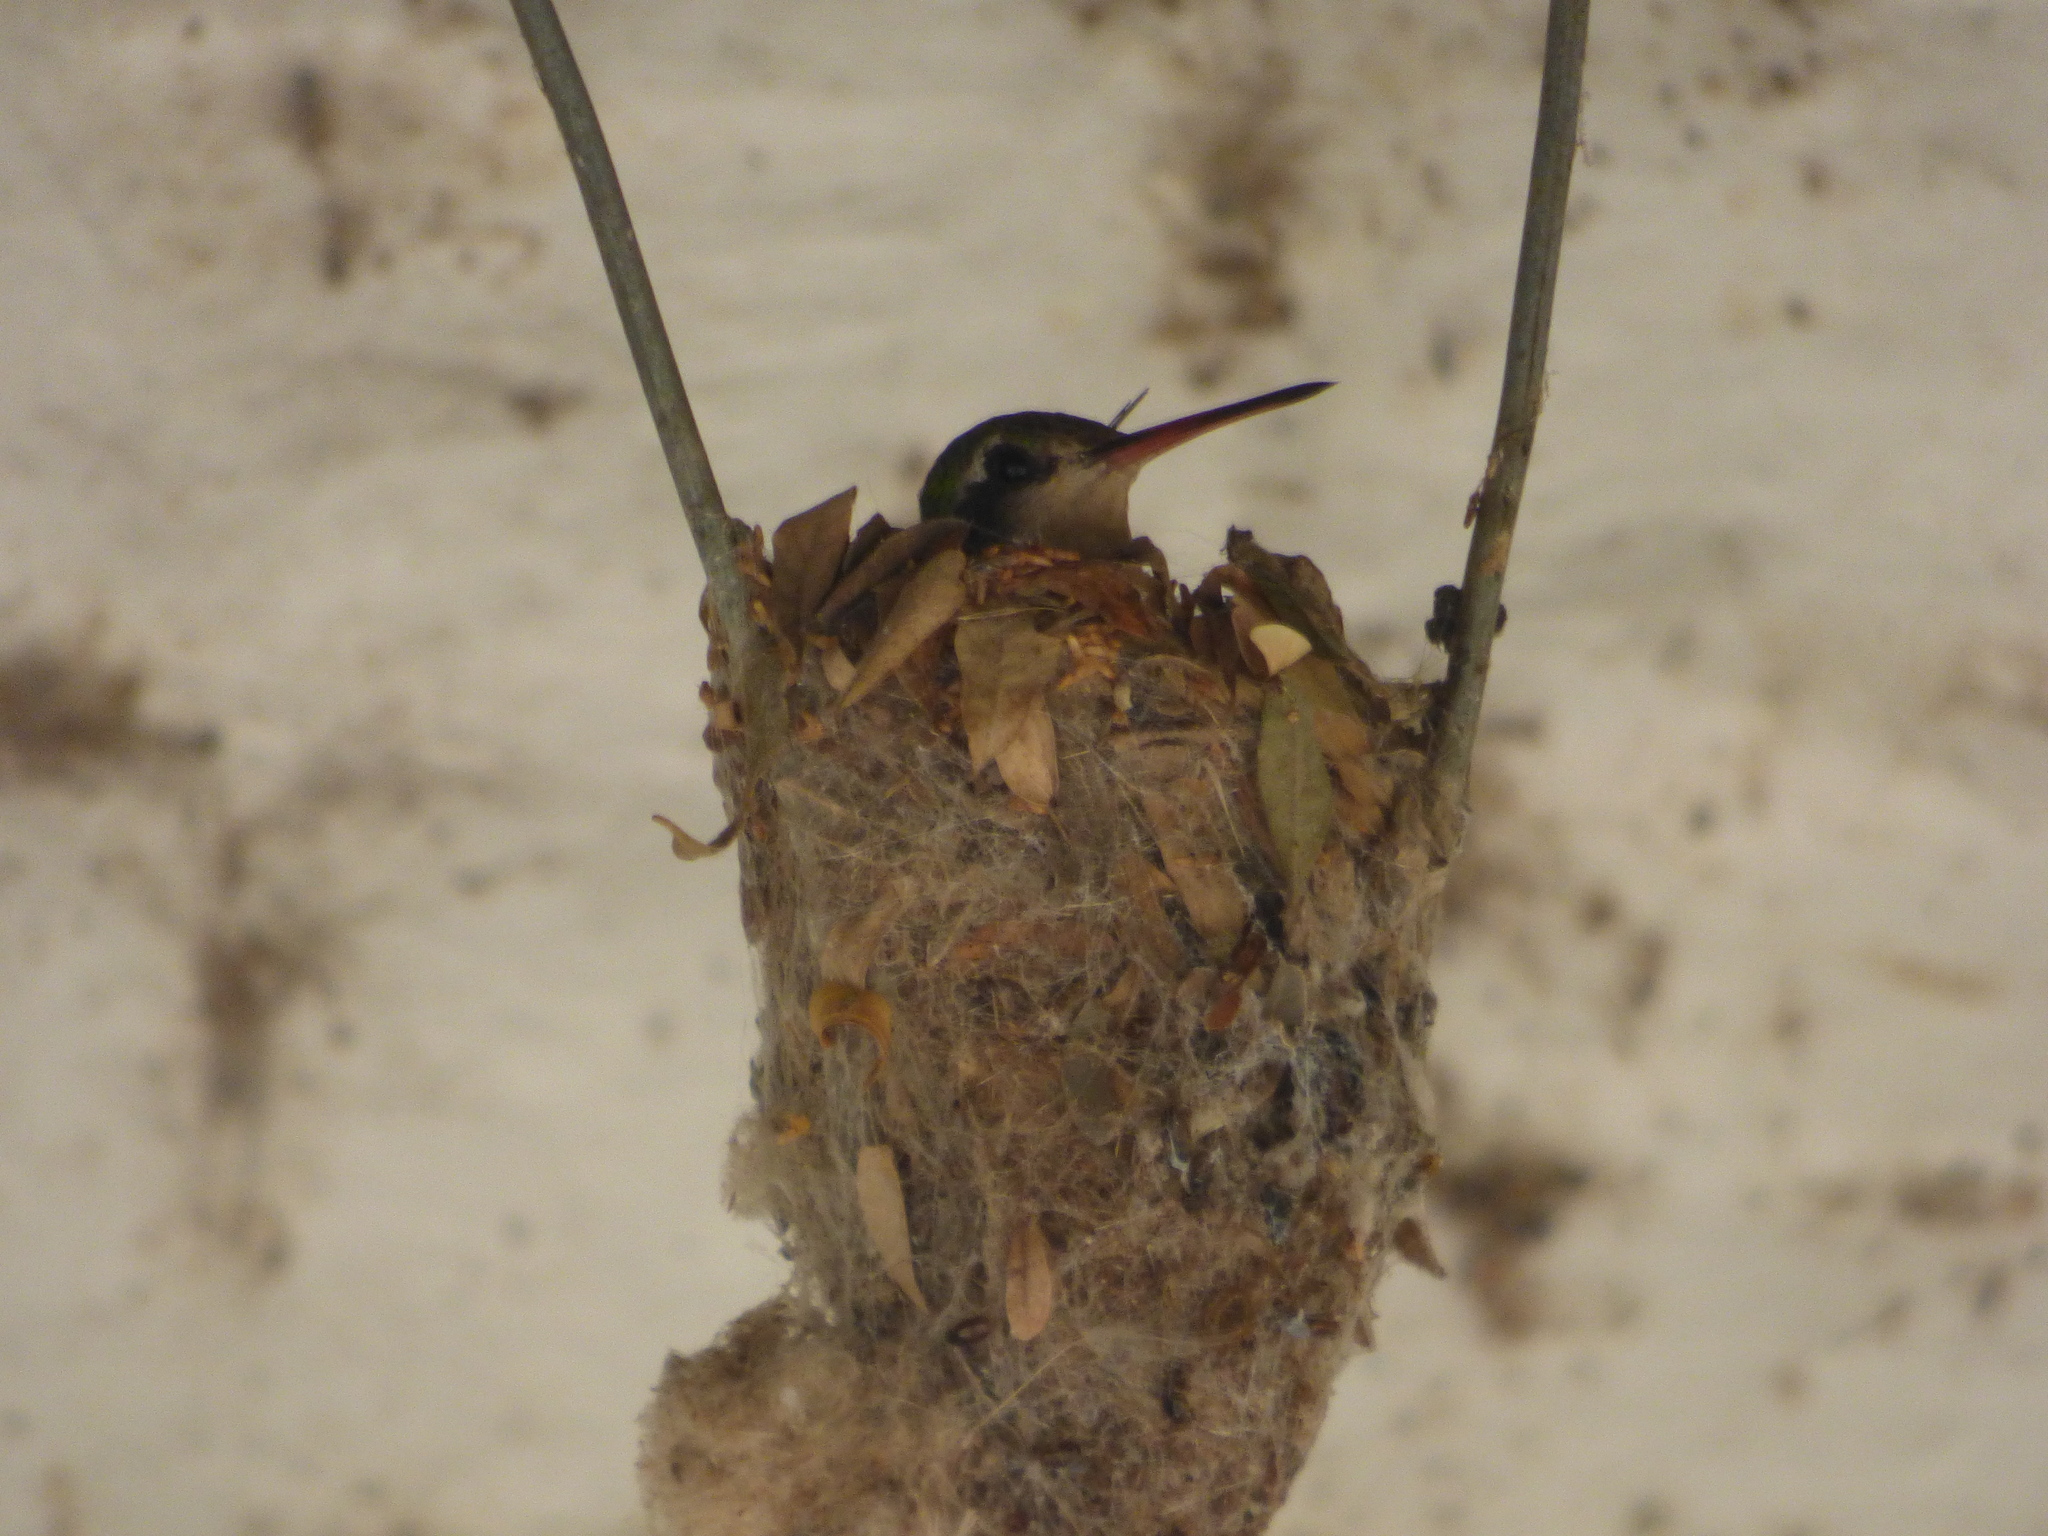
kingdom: Animalia
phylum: Chordata
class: Aves
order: Apodiformes
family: Trochilidae
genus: Chlorostilbon
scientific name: Chlorostilbon lucidus
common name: Glittering-bellied emerald
